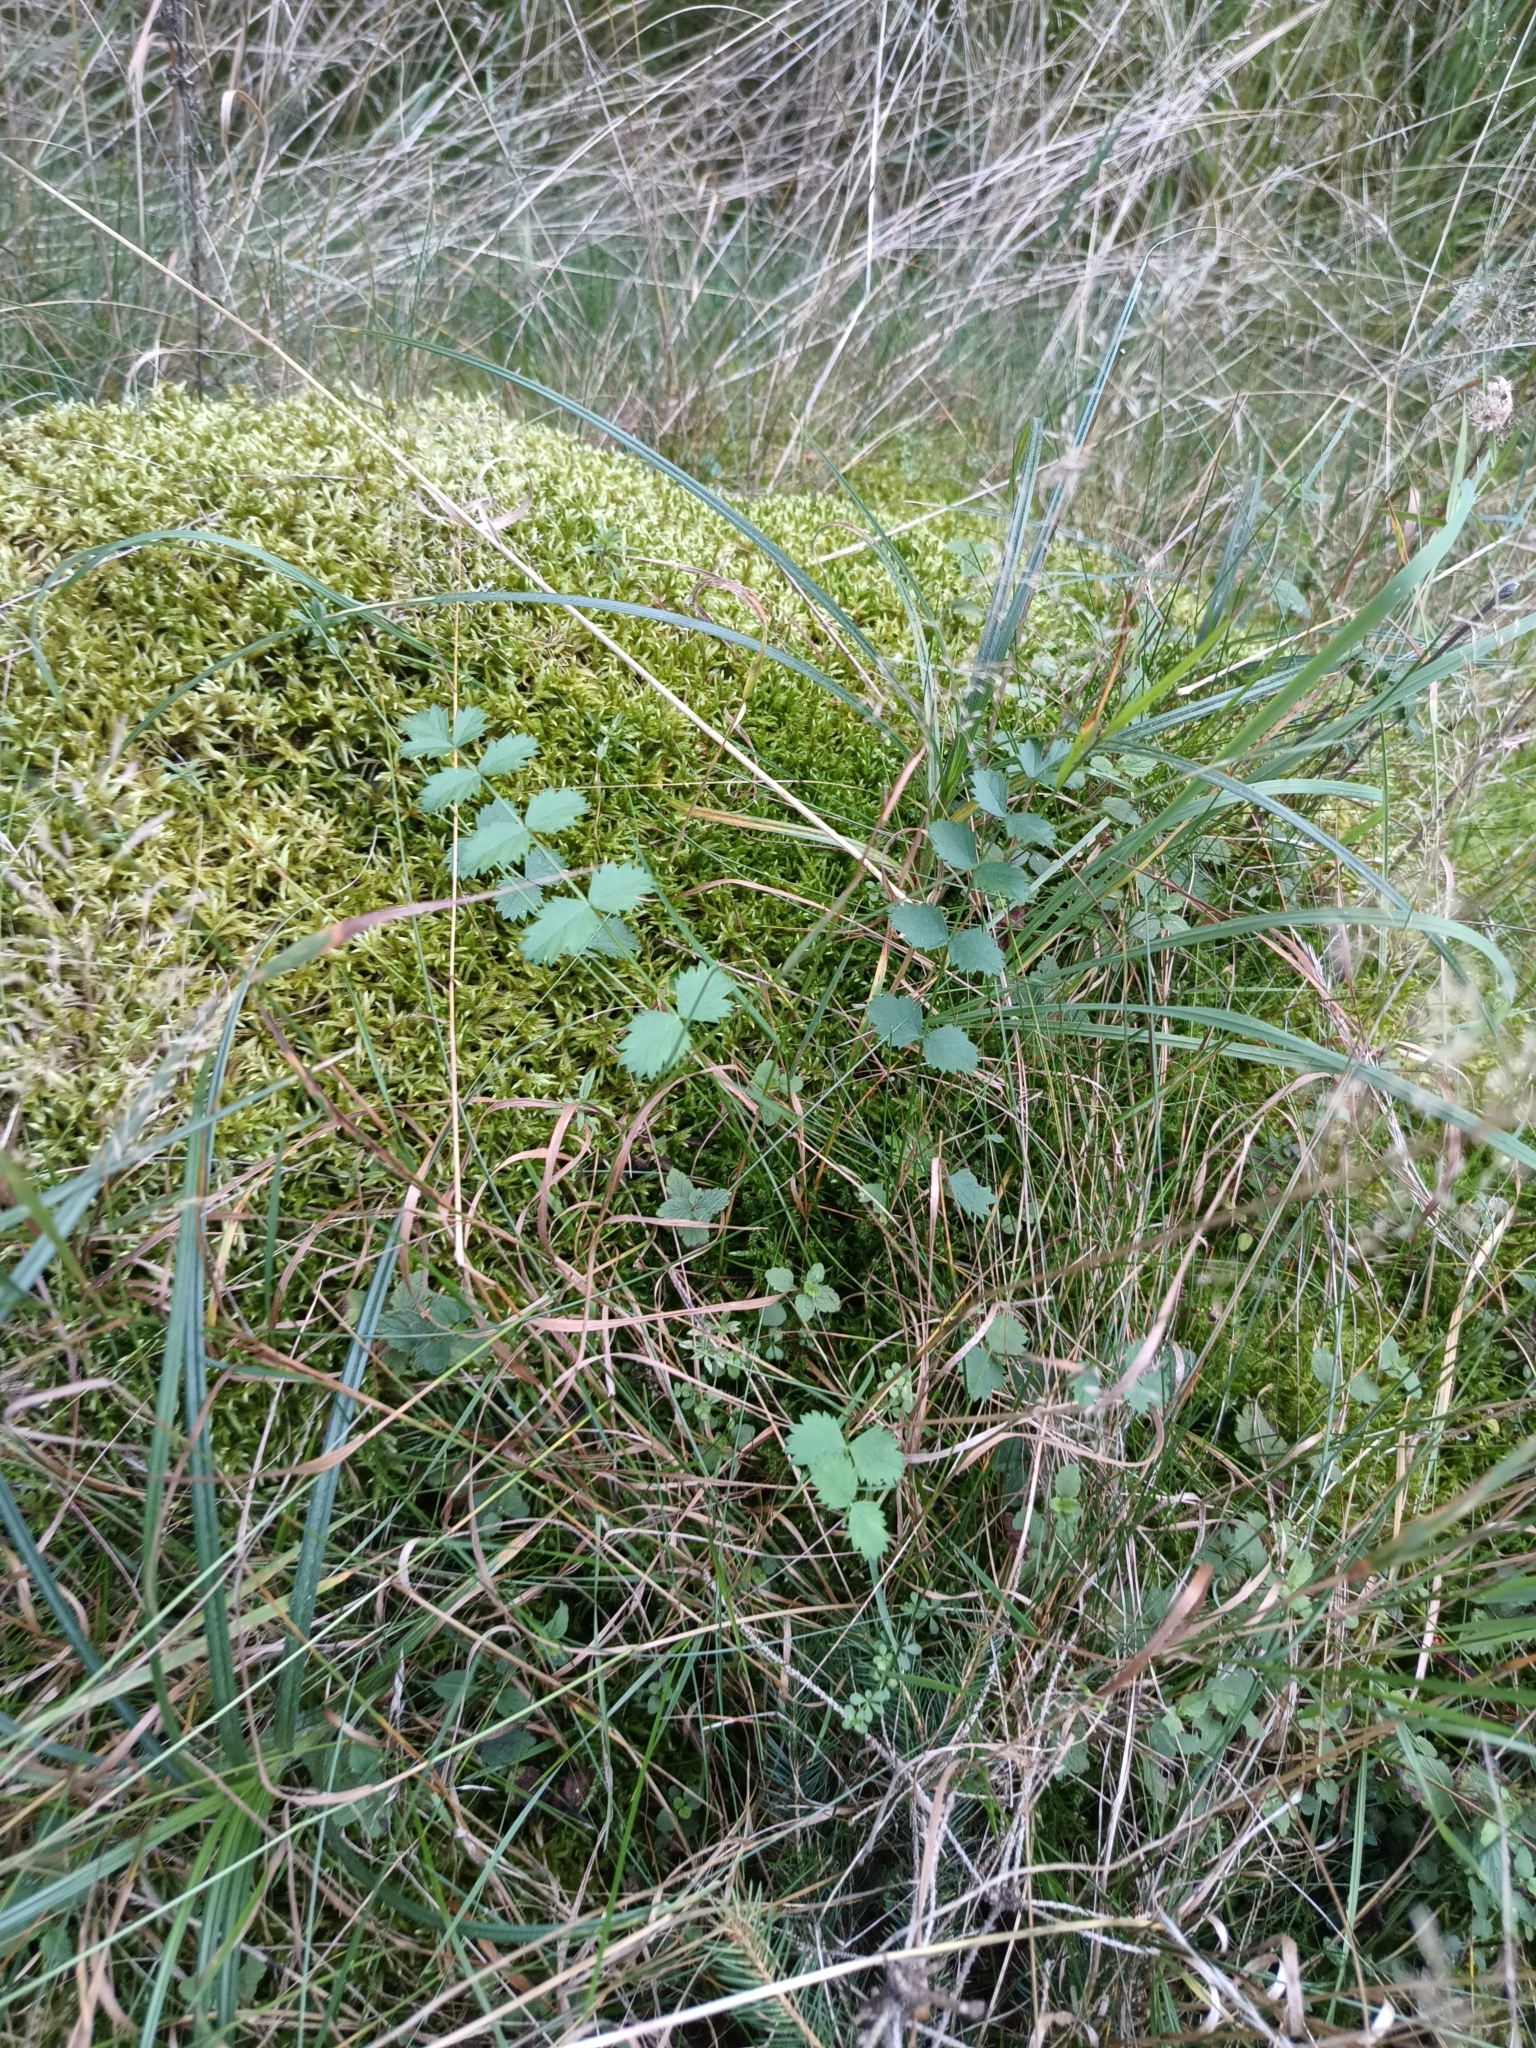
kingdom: Plantae
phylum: Tracheophyta
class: Magnoliopsida
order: Apiales
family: Apiaceae
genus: Pimpinella
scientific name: Pimpinella saxifraga
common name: Burnet-saxifrage
